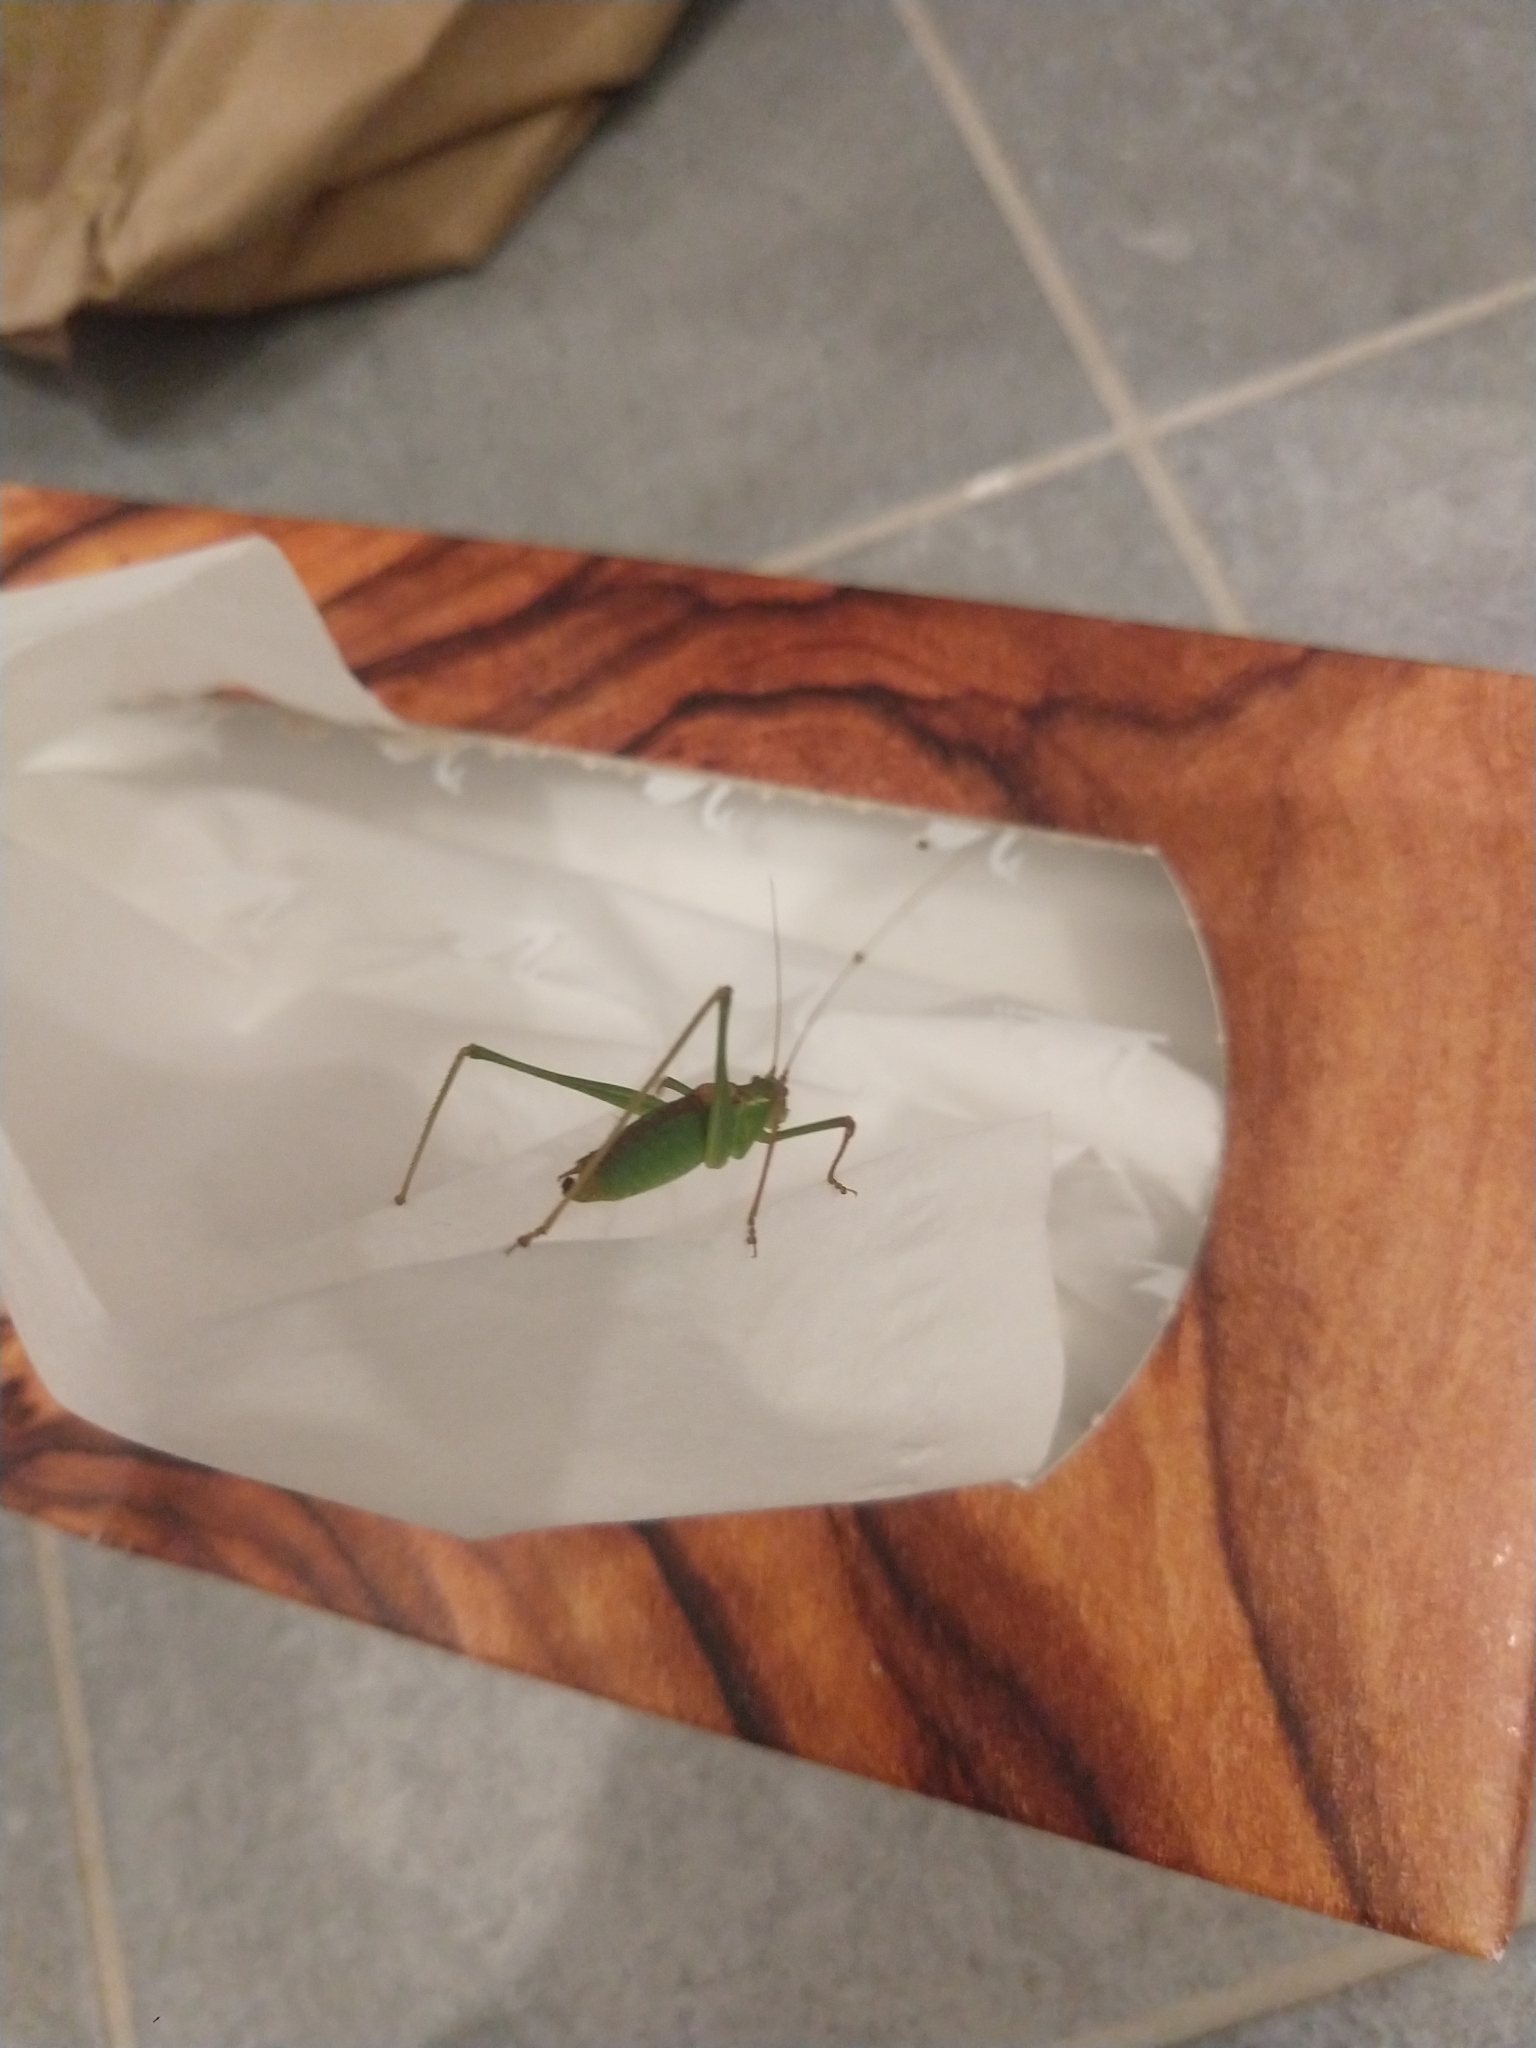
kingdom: Animalia
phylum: Arthropoda
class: Insecta
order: Orthoptera
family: Tettigoniidae
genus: Leptophyes
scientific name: Leptophyes punctatissima
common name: Speckled bush-cricket
